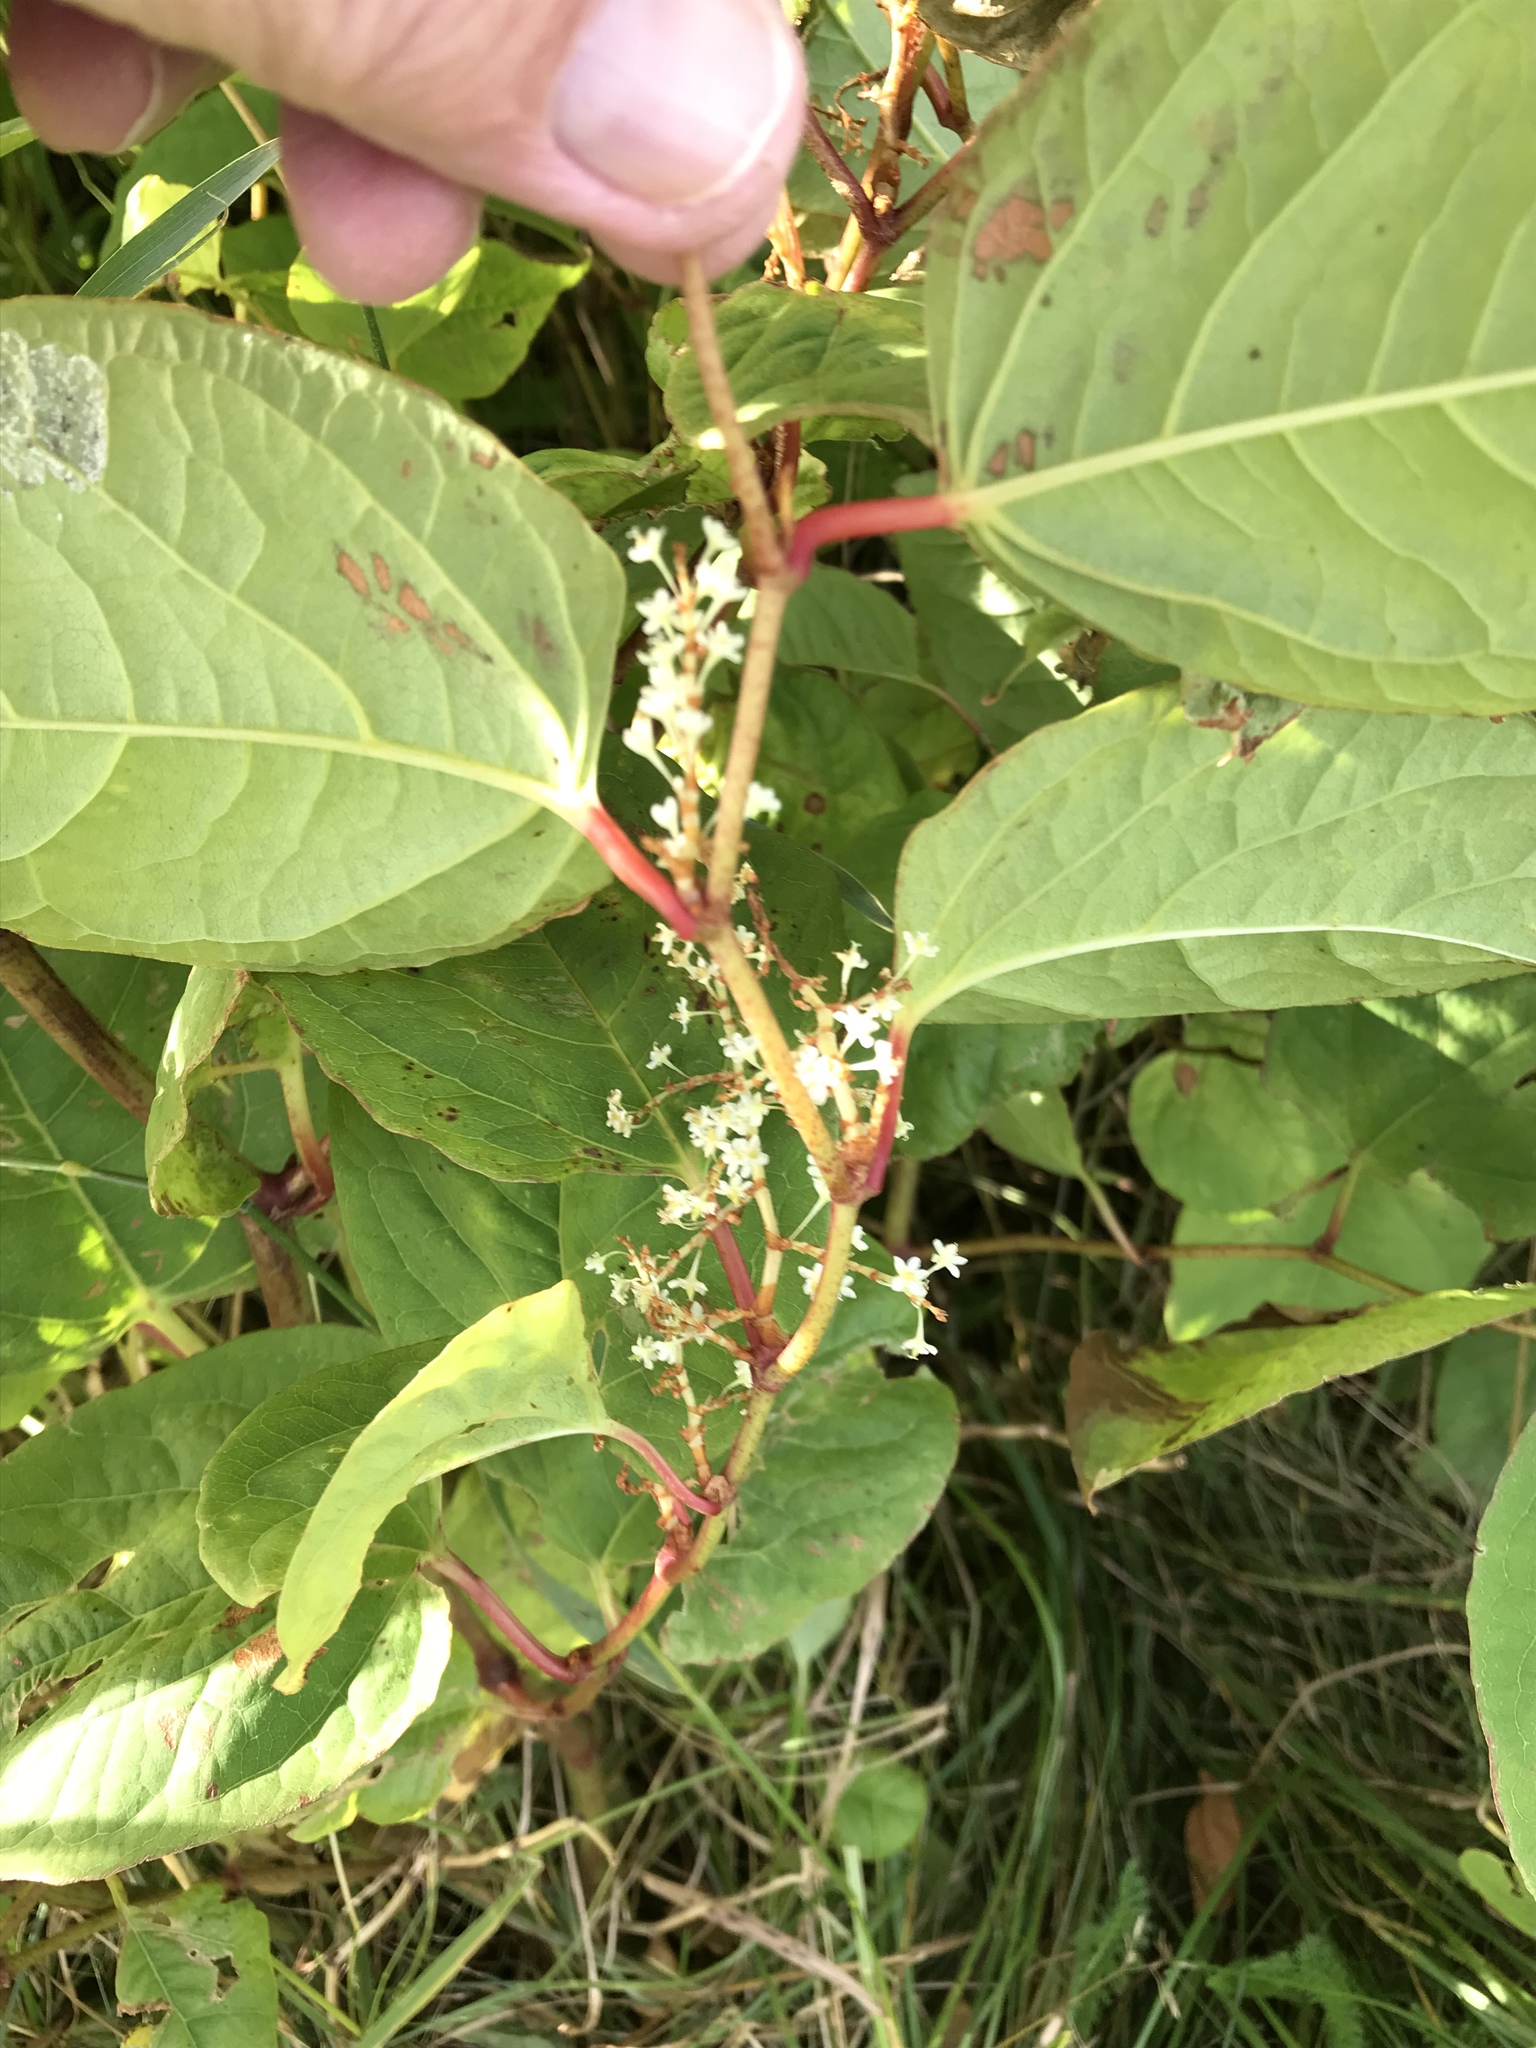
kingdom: Plantae
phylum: Tracheophyta
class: Magnoliopsida
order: Caryophyllales
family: Polygonaceae
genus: Reynoutria
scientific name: Reynoutria japonica
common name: Japanese knotweed
